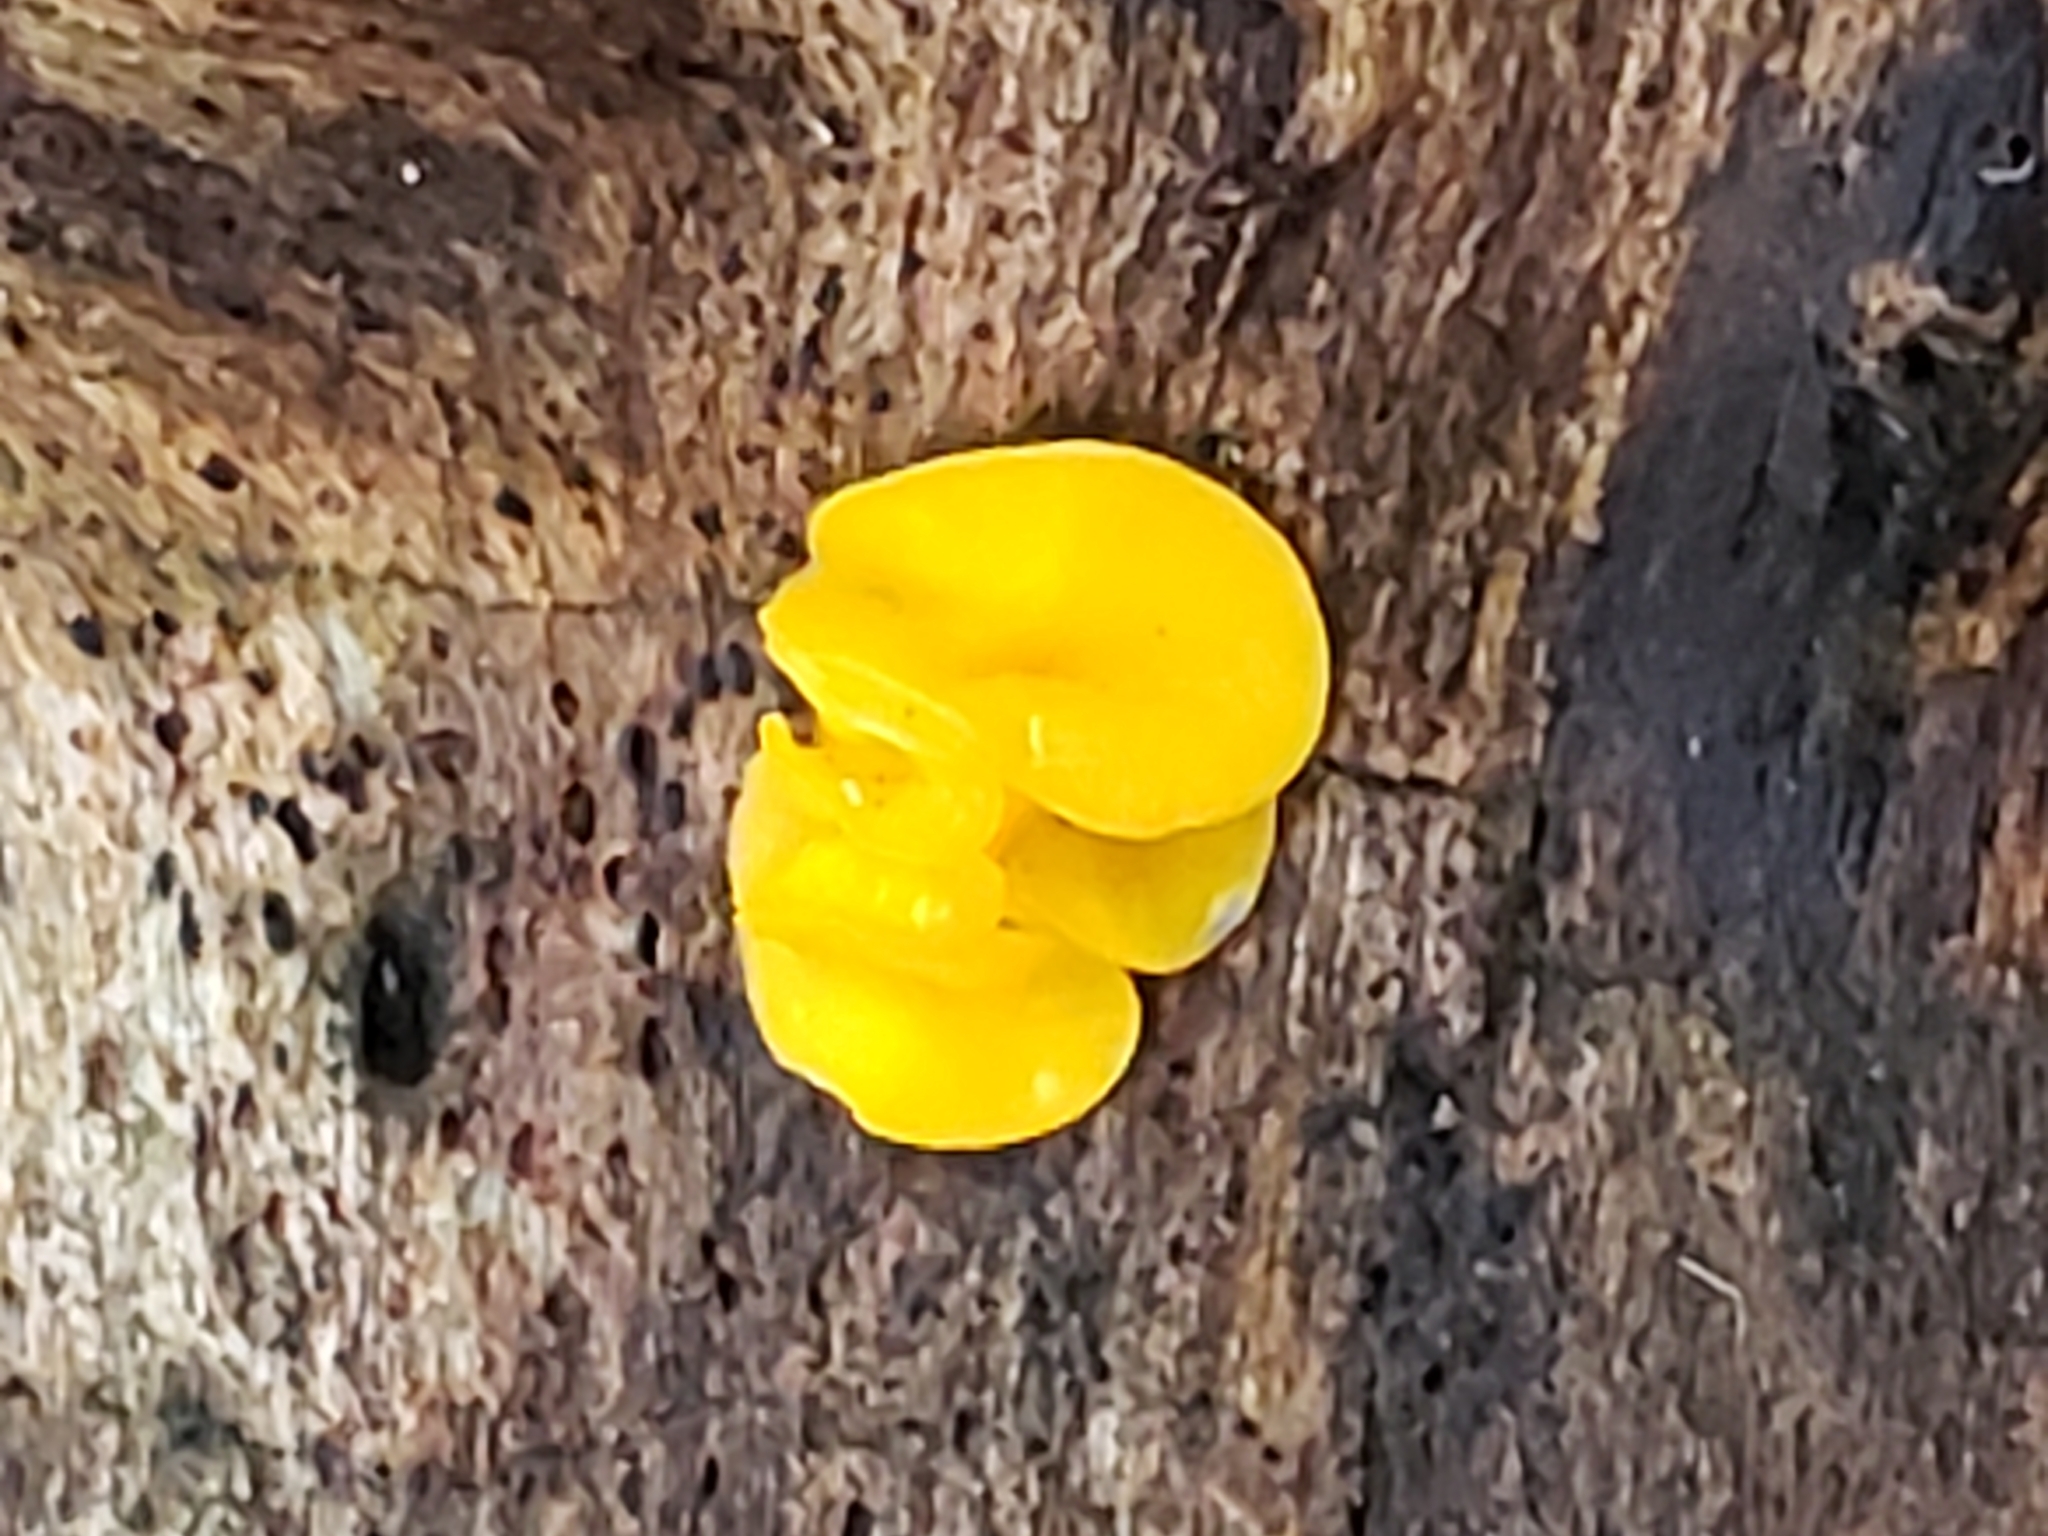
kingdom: Fungi
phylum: Ascomycota
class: Leotiomycetes
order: Helotiales
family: Pezizellaceae
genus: Calycina
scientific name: Calycina citrina
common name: Yellow fairy cups
